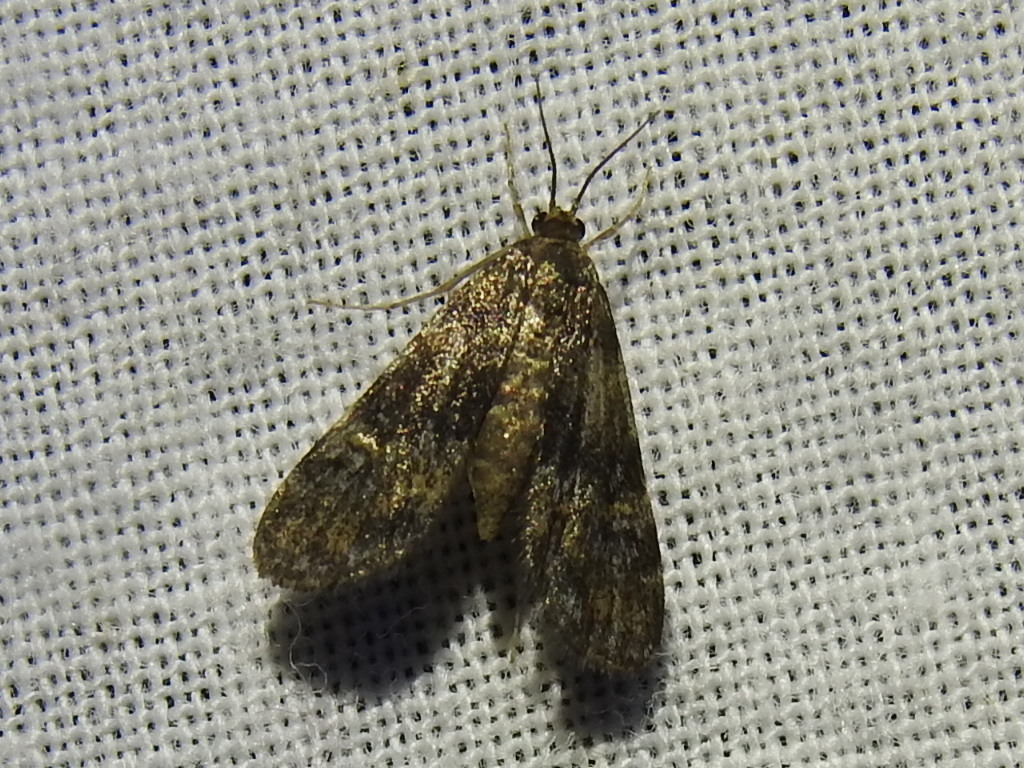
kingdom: Animalia
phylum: Arthropoda
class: Insecta
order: Lepidoptera
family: Crambidae
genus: Elophila
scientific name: Elophila obliteralis
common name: Waterlily leafcutter moth
